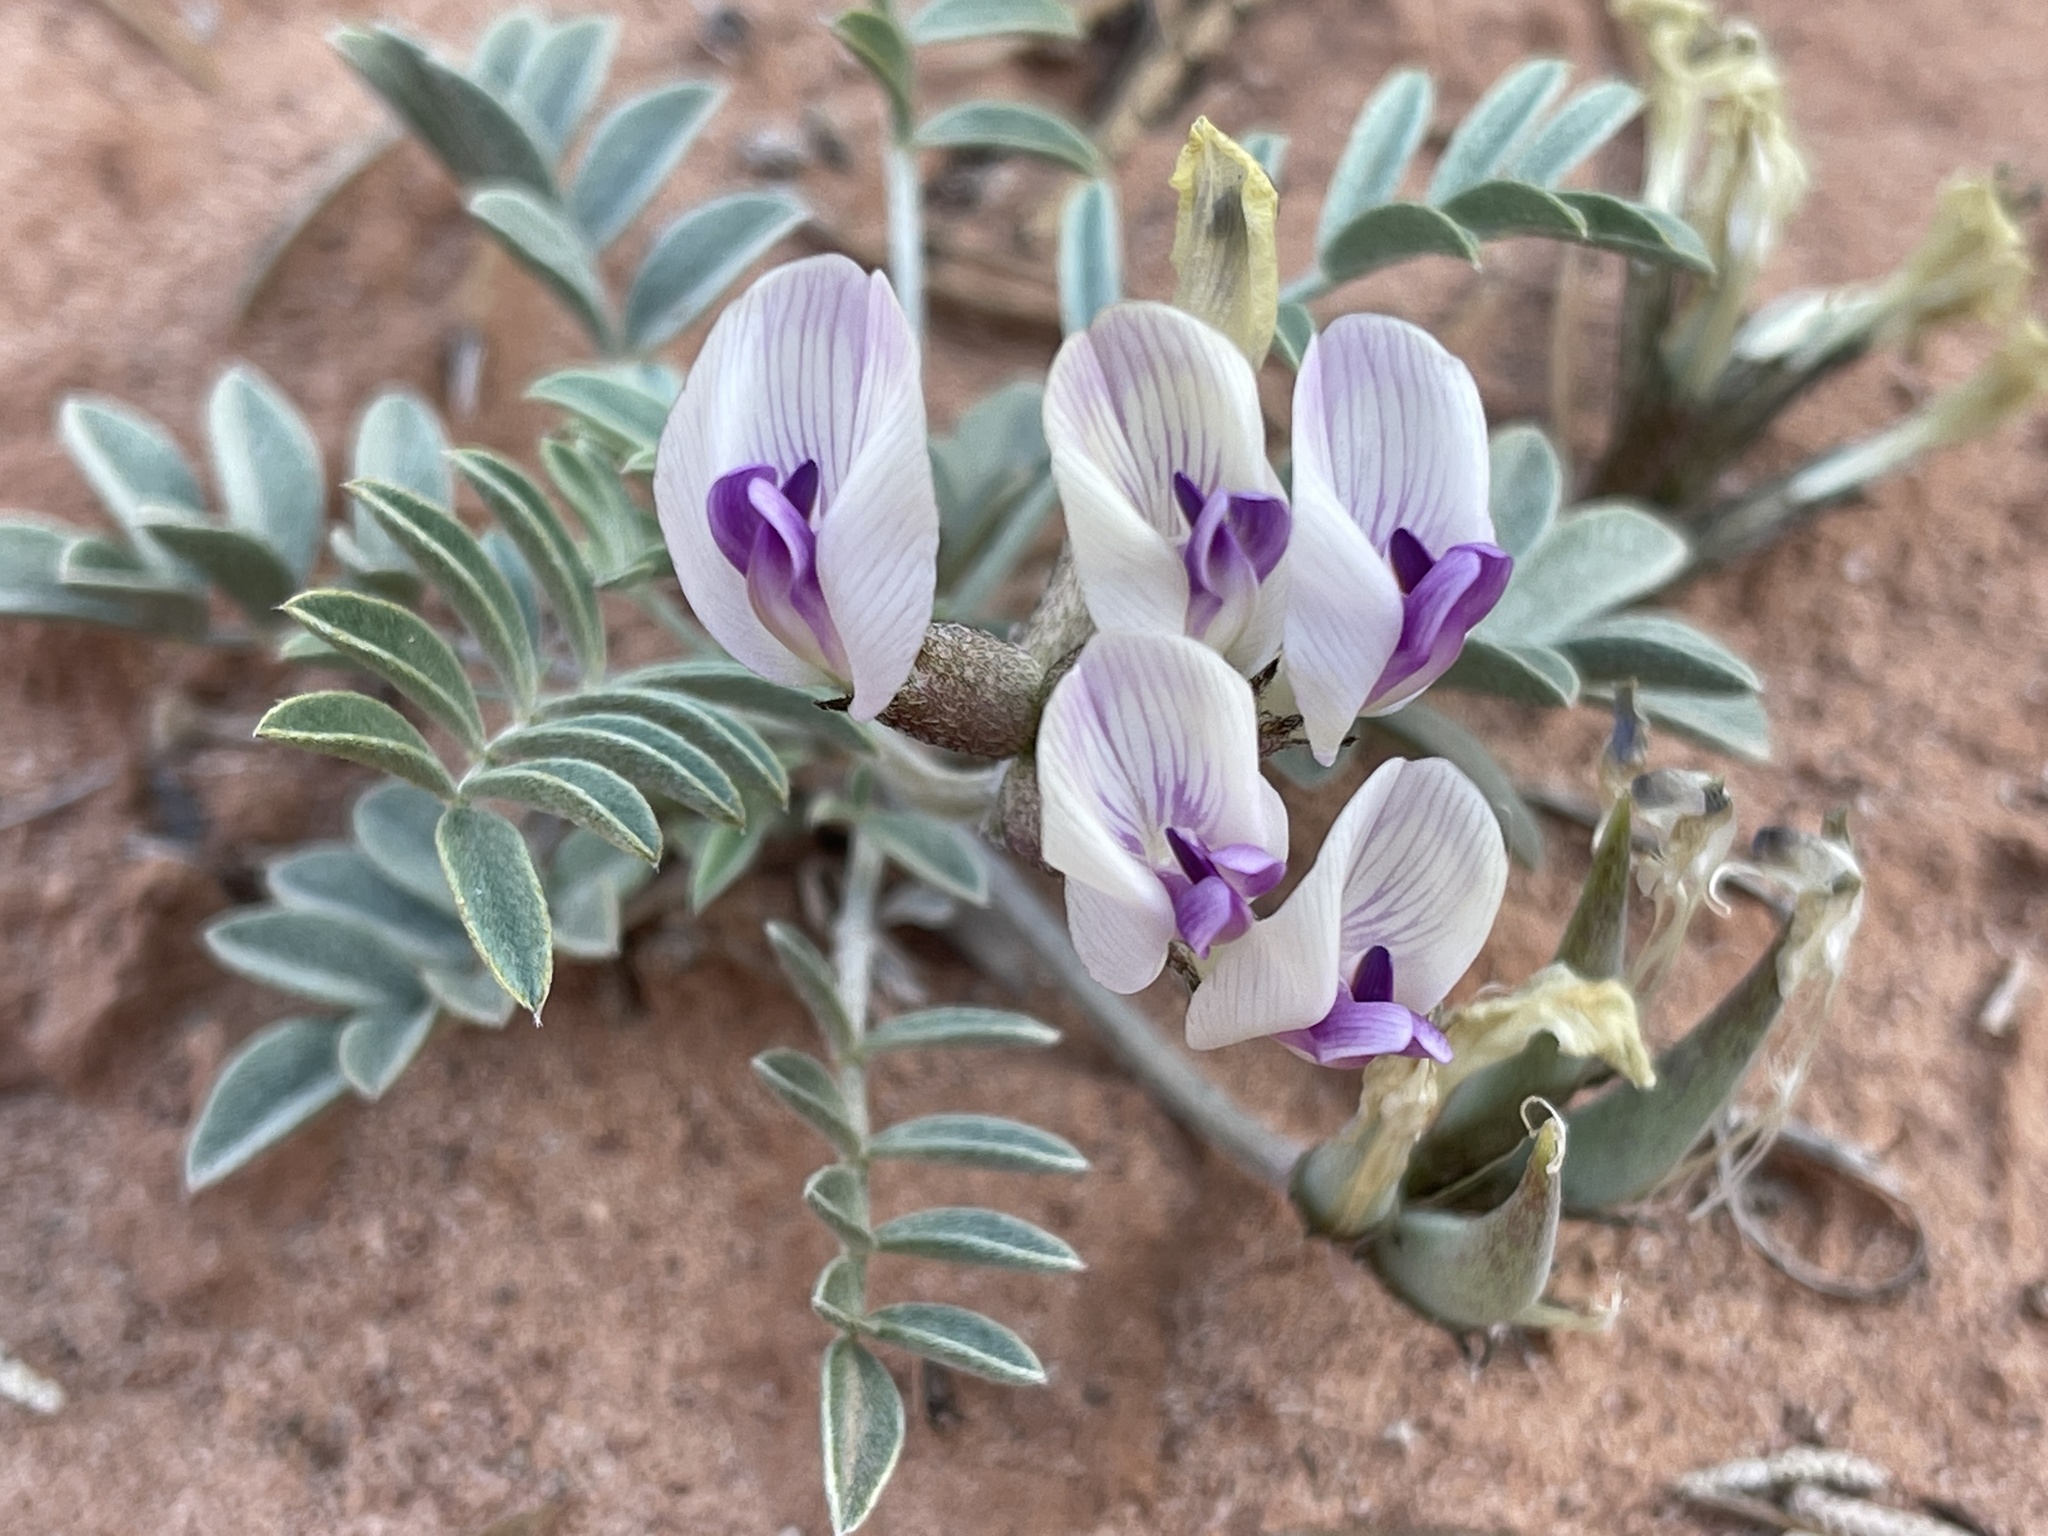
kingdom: Plantae
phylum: Tracheophyta
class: Magnoliopsida
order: Fabales
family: Fabaceae
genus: Astragalus
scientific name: Astragalus piscator
